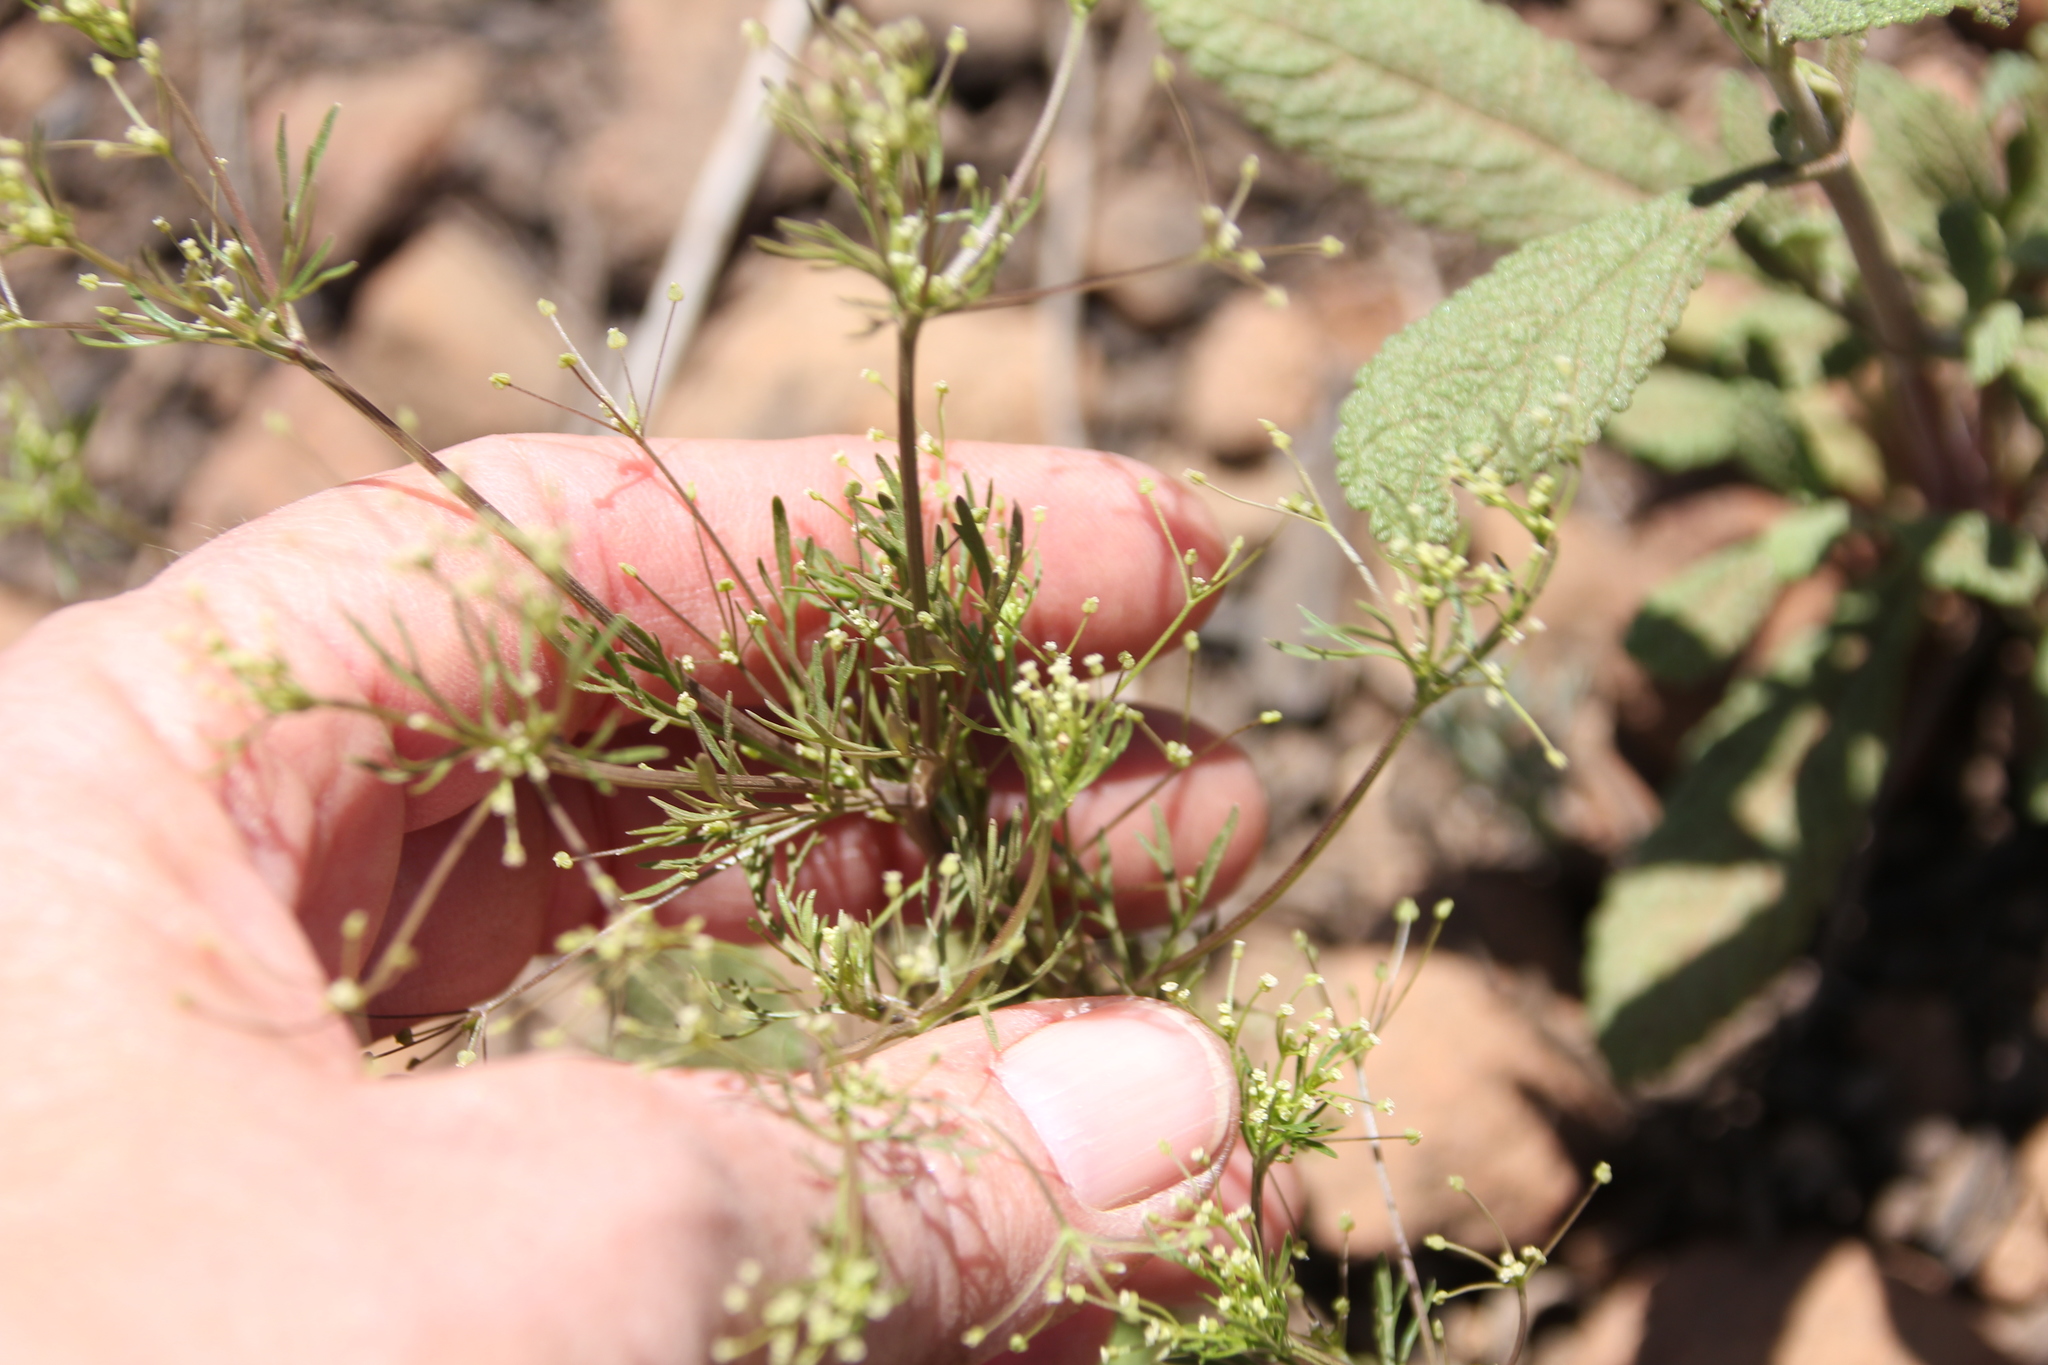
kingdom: Plantae
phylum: Tracheophyta
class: Magnoliopsida
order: Apiales
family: Apiaceae
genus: Apiastrum
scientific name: Apiastrum angustifolium
